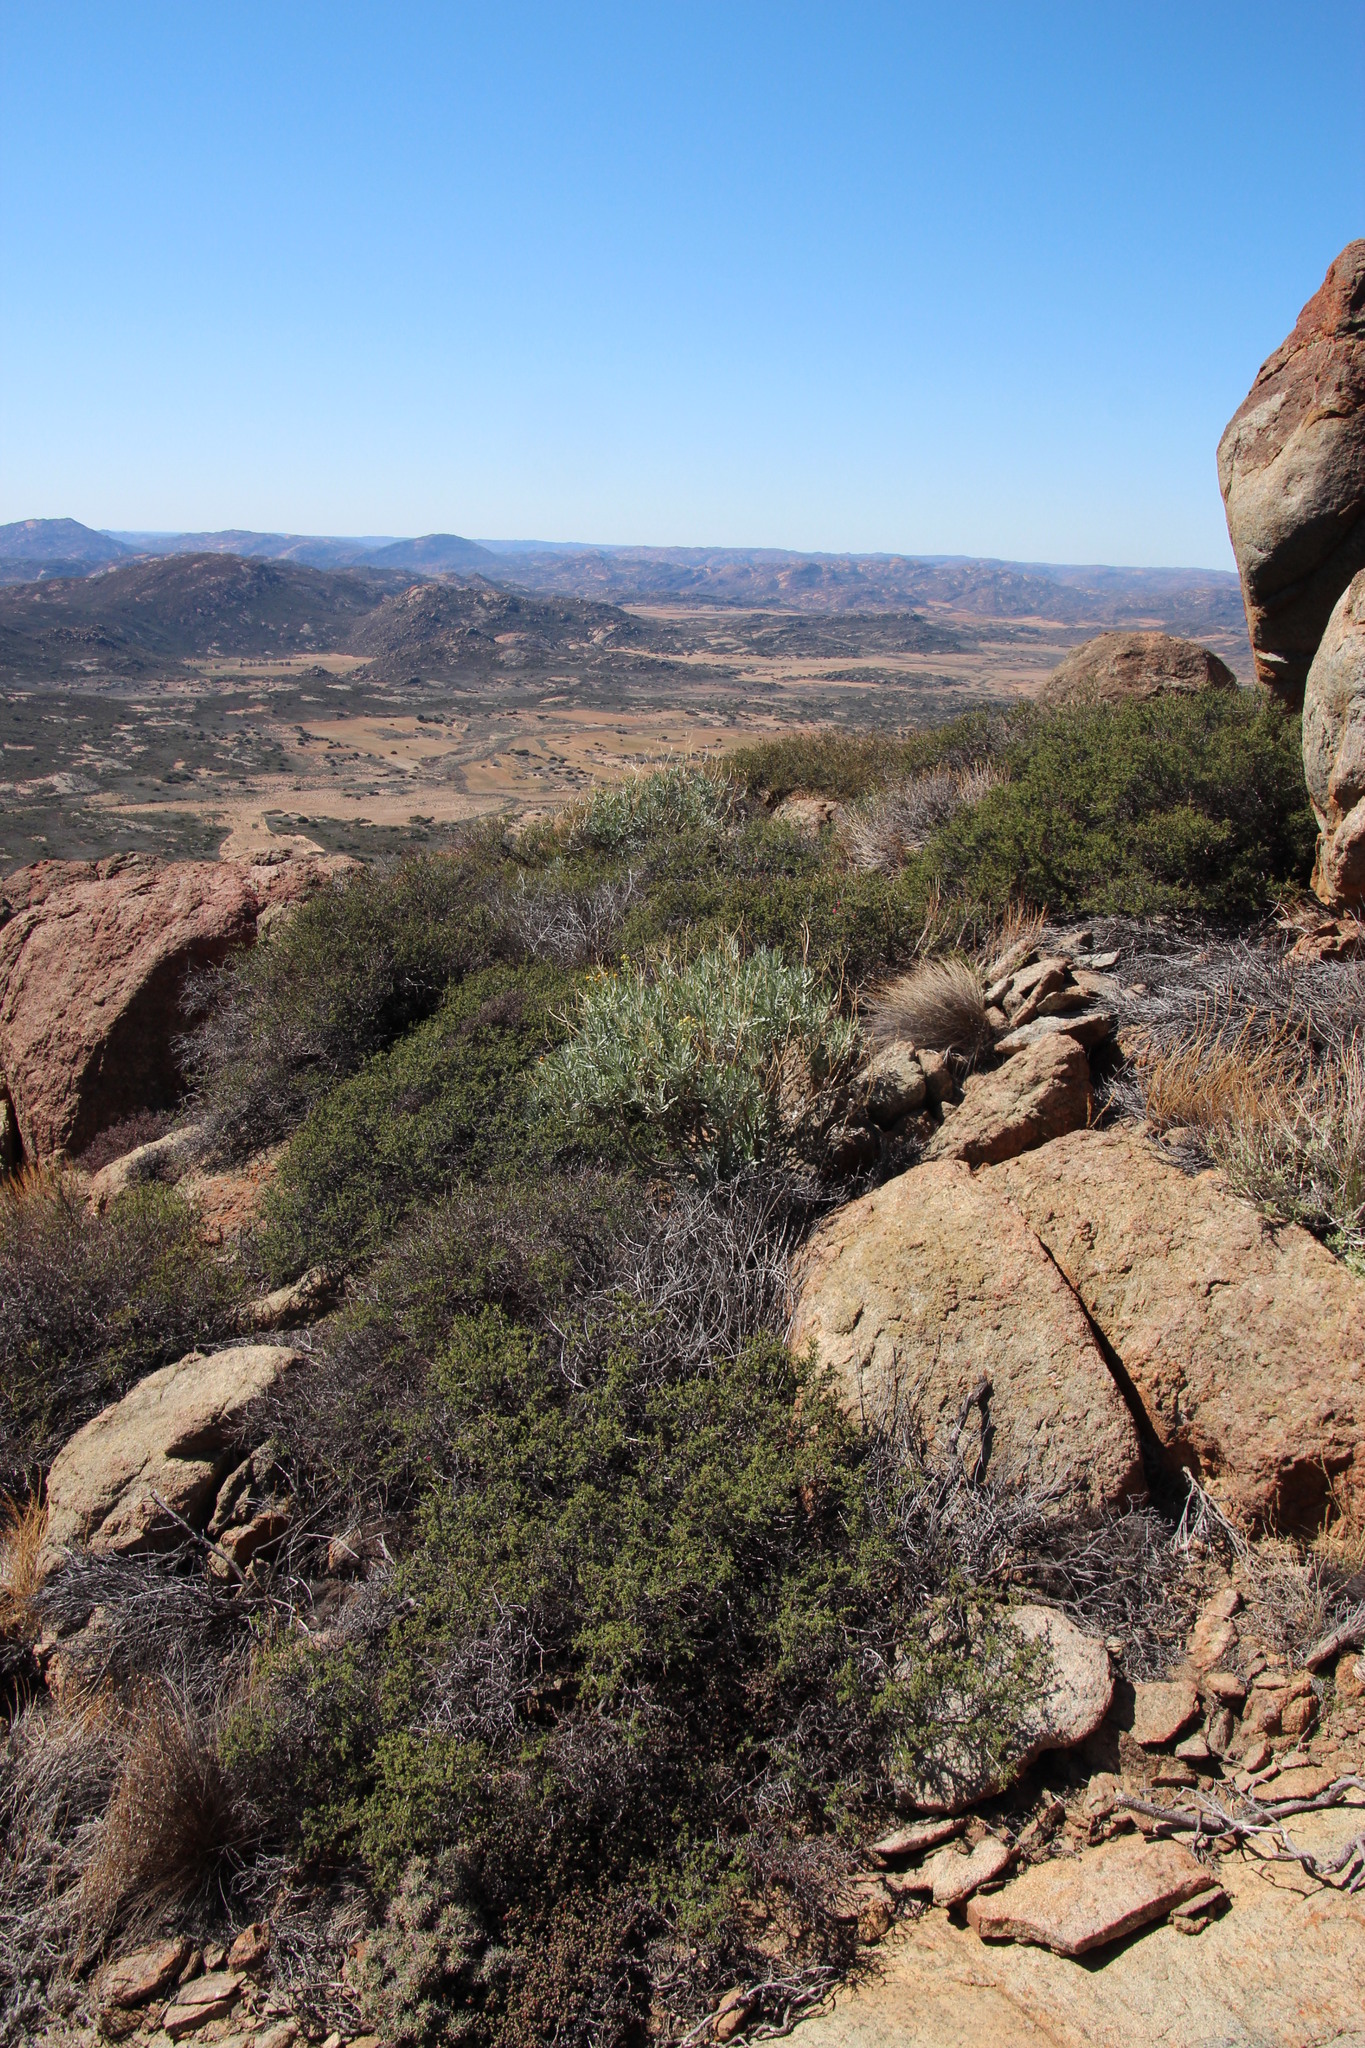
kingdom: Plantae
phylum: Tracheophyta
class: Magnoliopsida
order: Asterales
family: Asteraceae
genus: Senecio
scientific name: Senecio cinerascens
